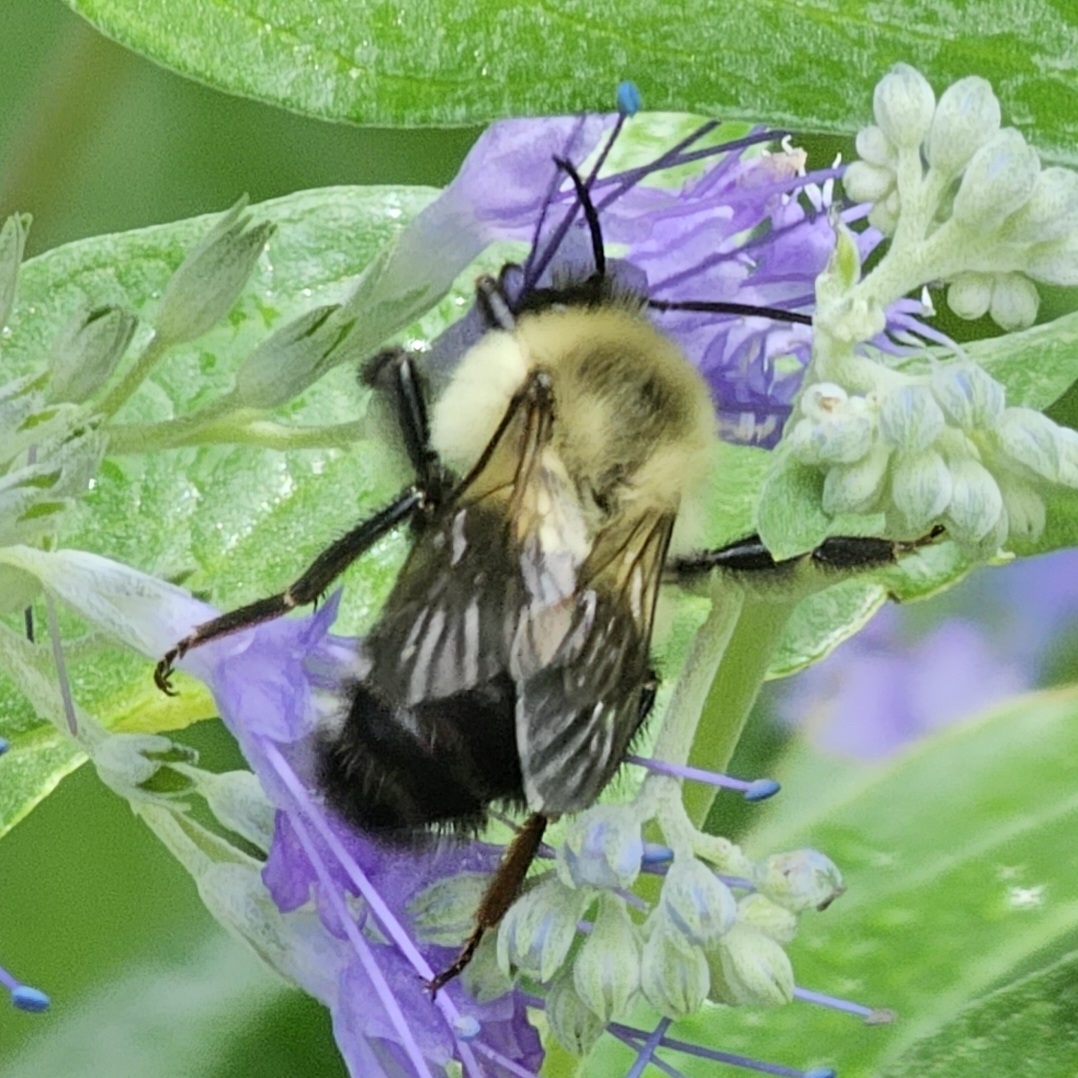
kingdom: Animalia
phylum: Arthropoda
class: Insecta
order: Hymenoptera
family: Apidae
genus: Bombus
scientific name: Bombus impatiens
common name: Common eastern bumble bee
